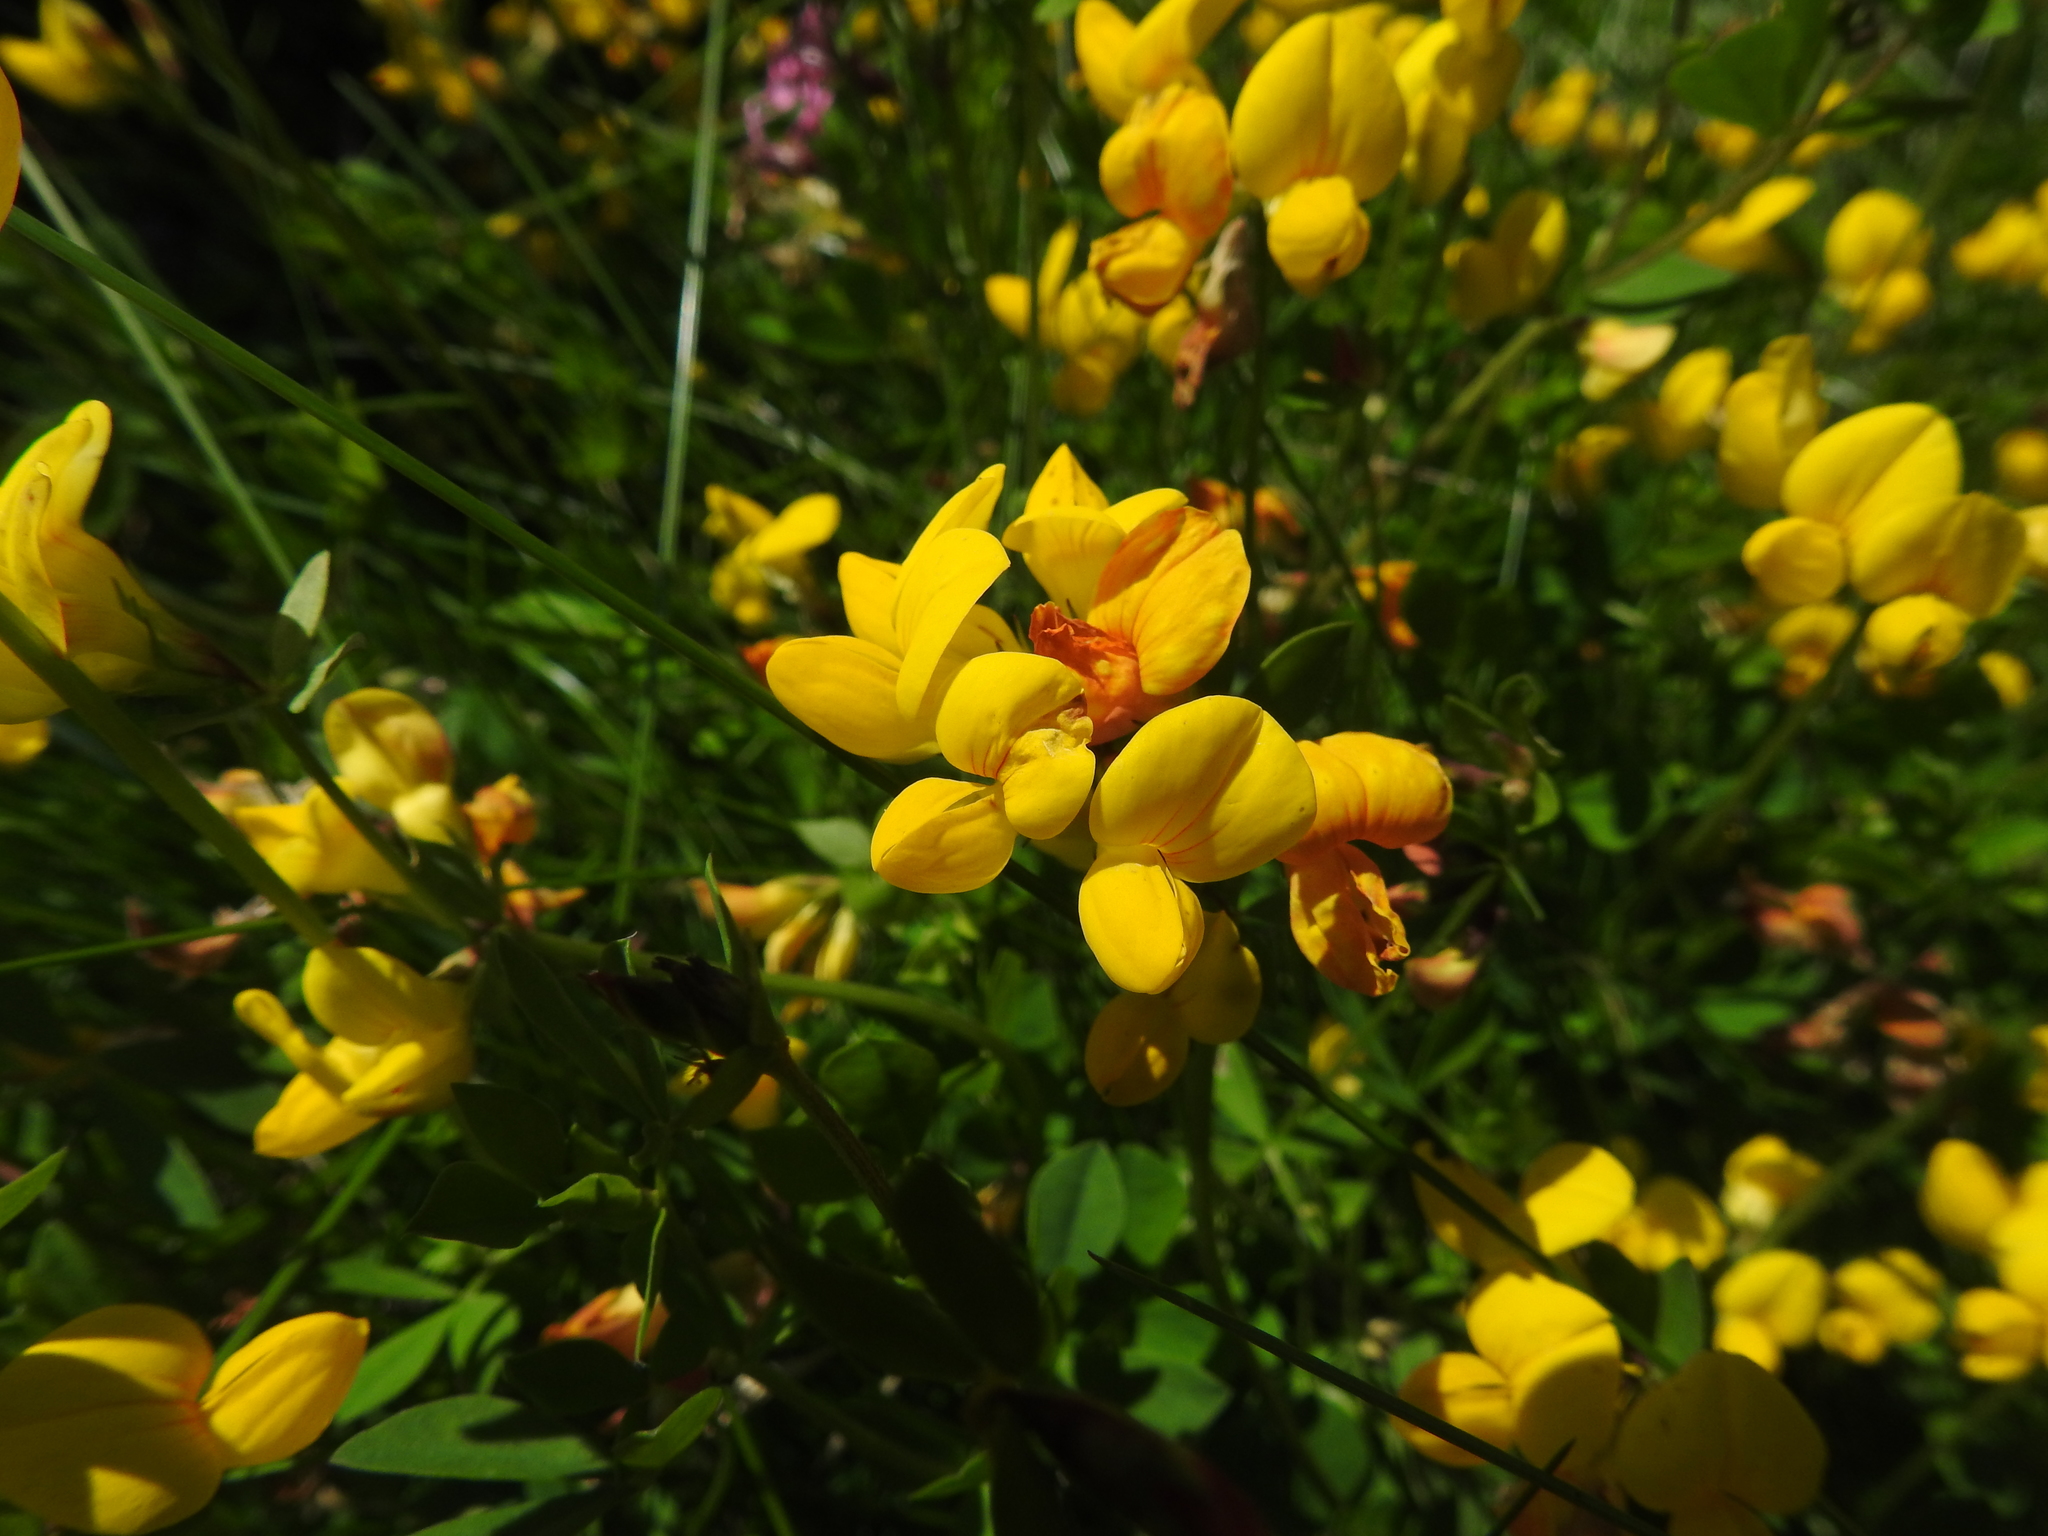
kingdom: Plantae
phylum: Tracheophyta
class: Magnoliopsida
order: Fabales
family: Fabaceae
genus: Lotus
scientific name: Lotus corniculatus
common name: Common bird's-foot-trefoil
